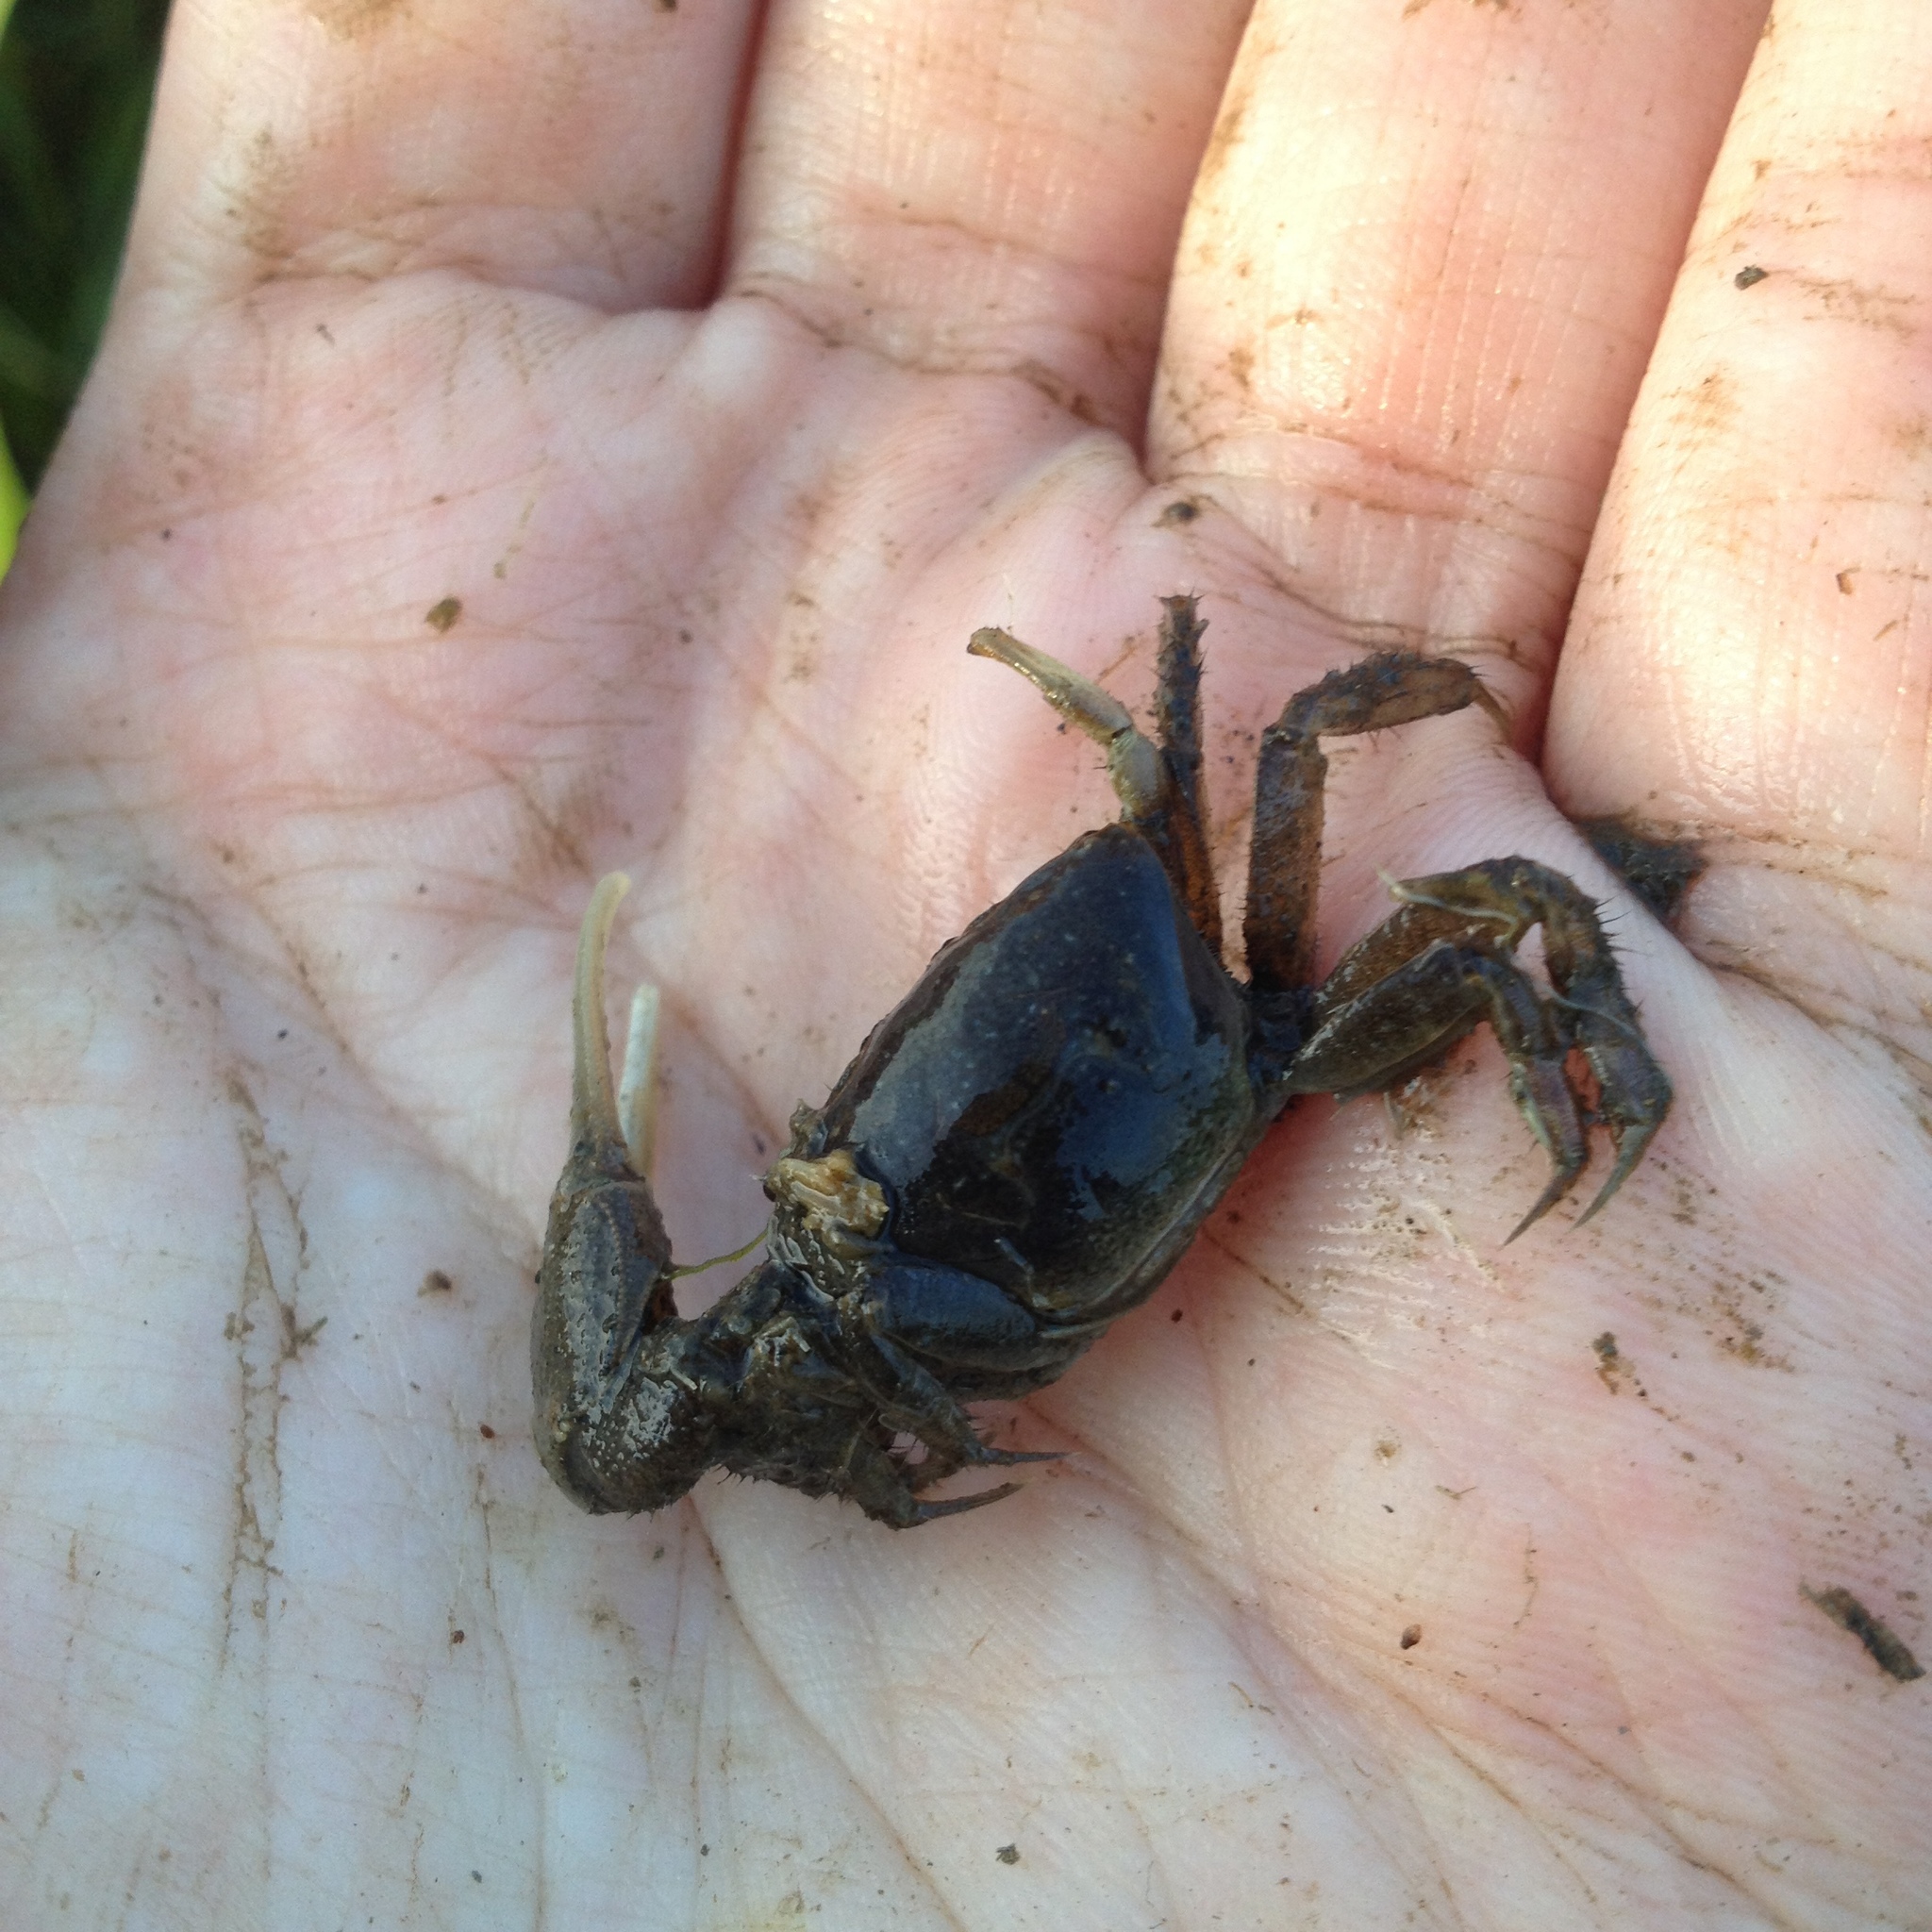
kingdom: Animalia
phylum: Arthropoda
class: Malacostraca
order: Decapoda
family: Ocypodidae
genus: Minuca
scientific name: Minuca pugnax
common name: Mud fiddler crab
